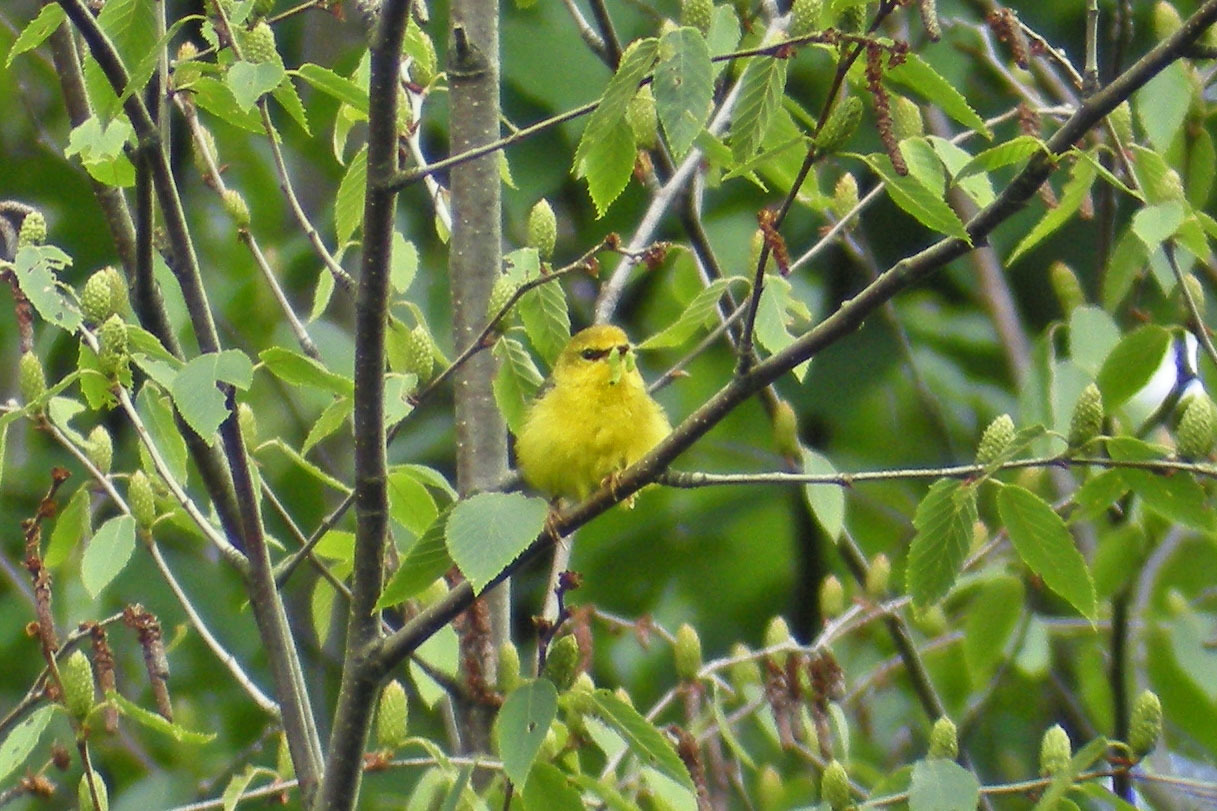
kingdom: Animalia
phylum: Chordata
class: Aves
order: Passeriformes
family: Parulidae
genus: Vermivora
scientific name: Vermivora cyanoptera
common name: Blue-winged warbler
